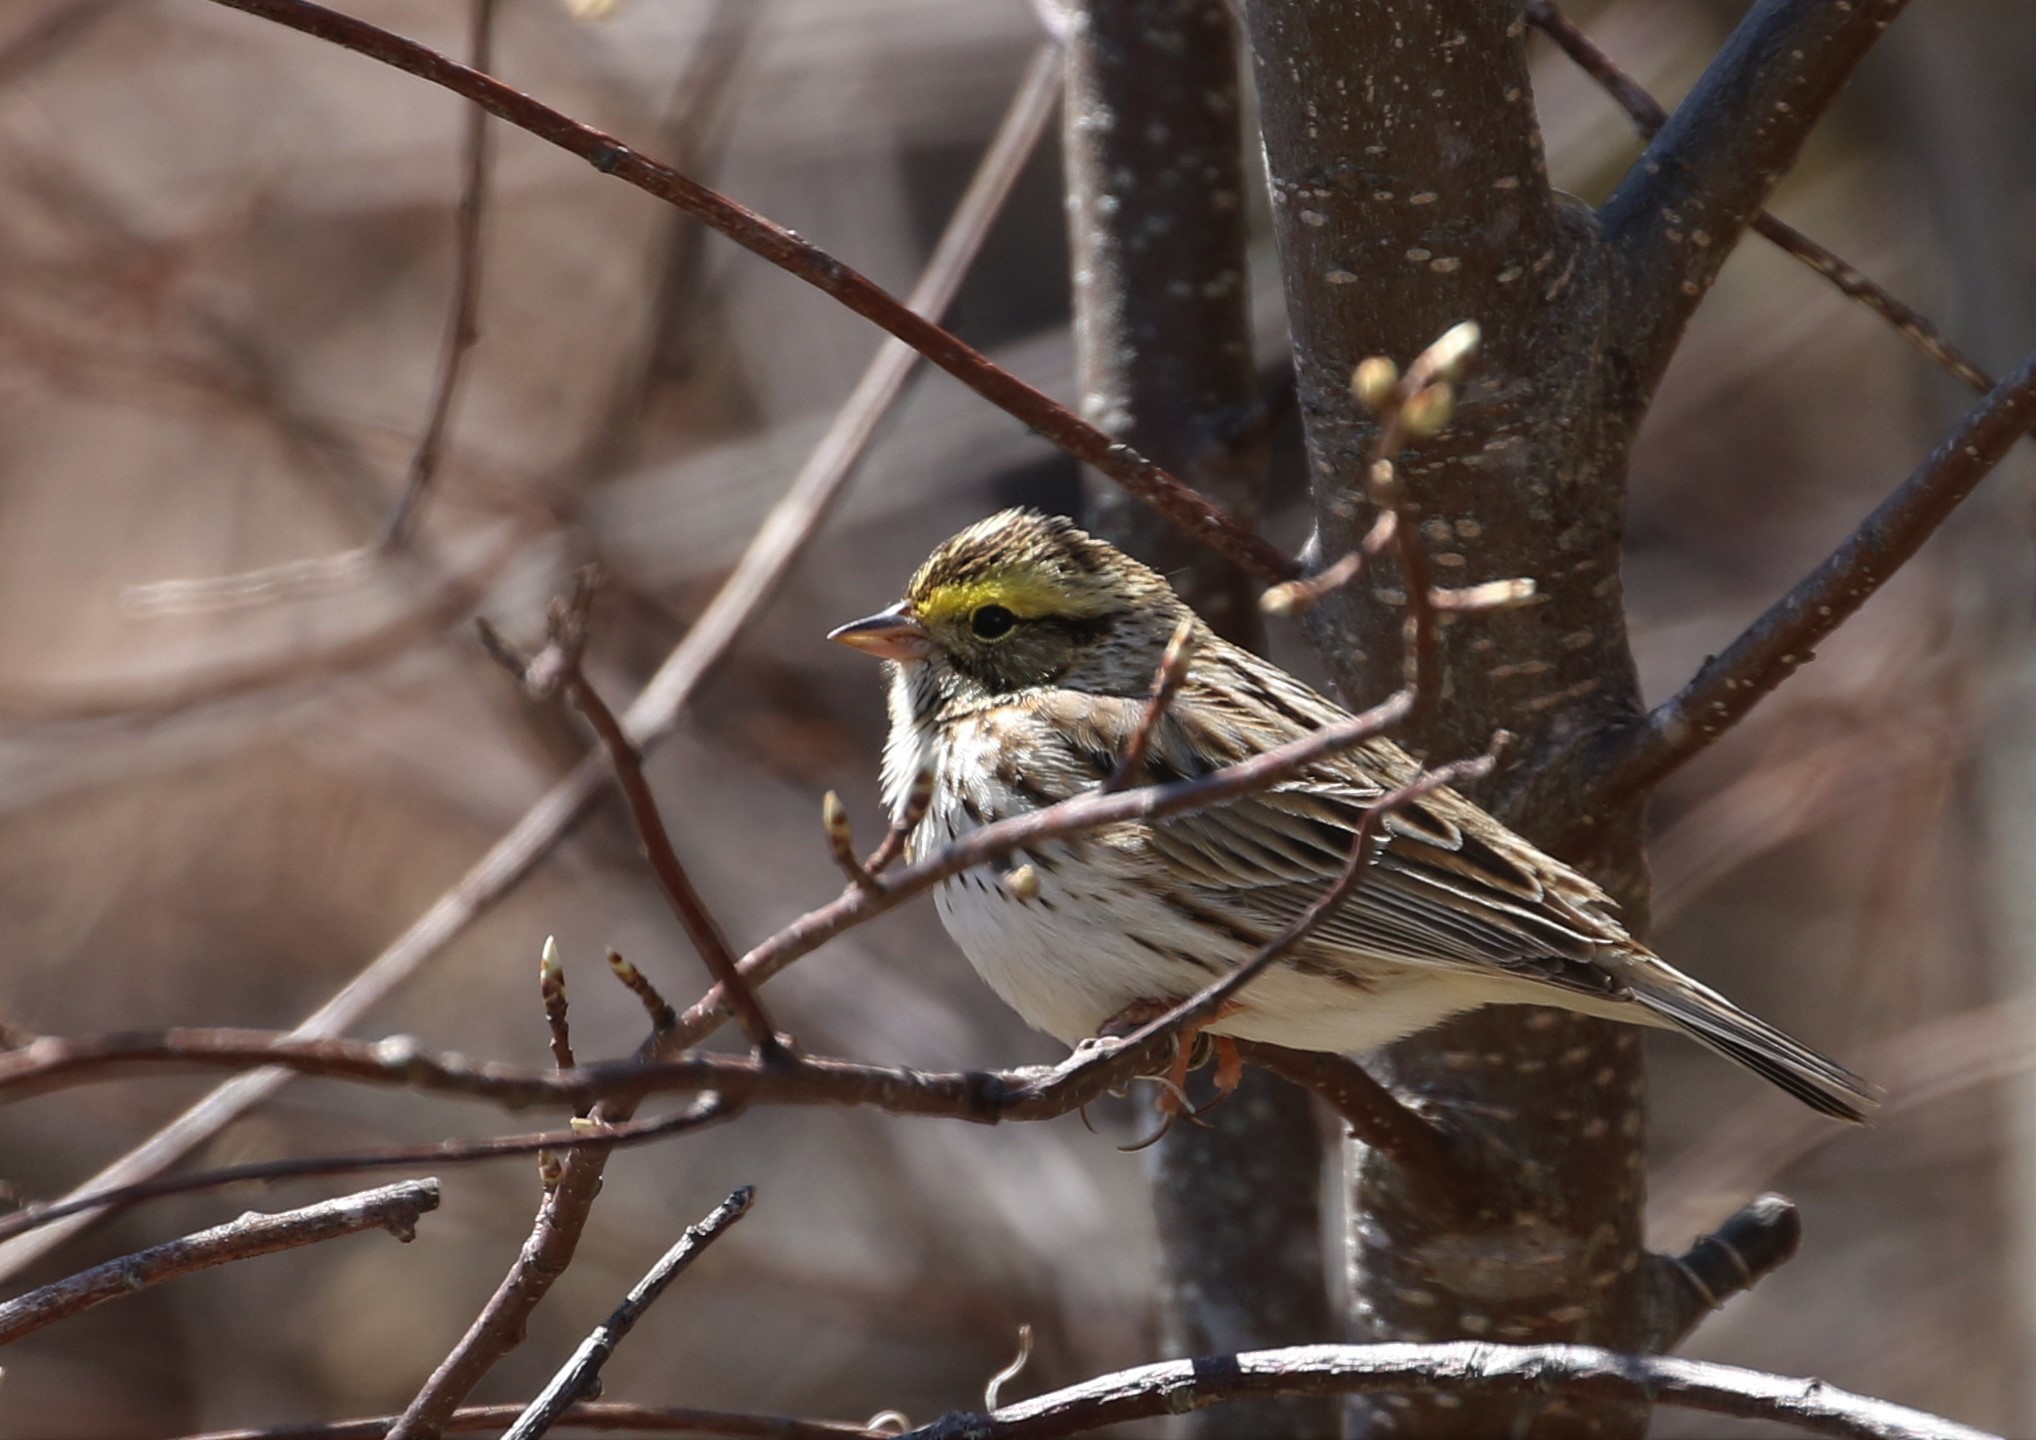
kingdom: Animalia
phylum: Chordata
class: Aves
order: Passeriformes
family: Passerellidae
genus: Passerculus
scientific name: Passerculus sandwichensis
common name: Savannah sparrow
